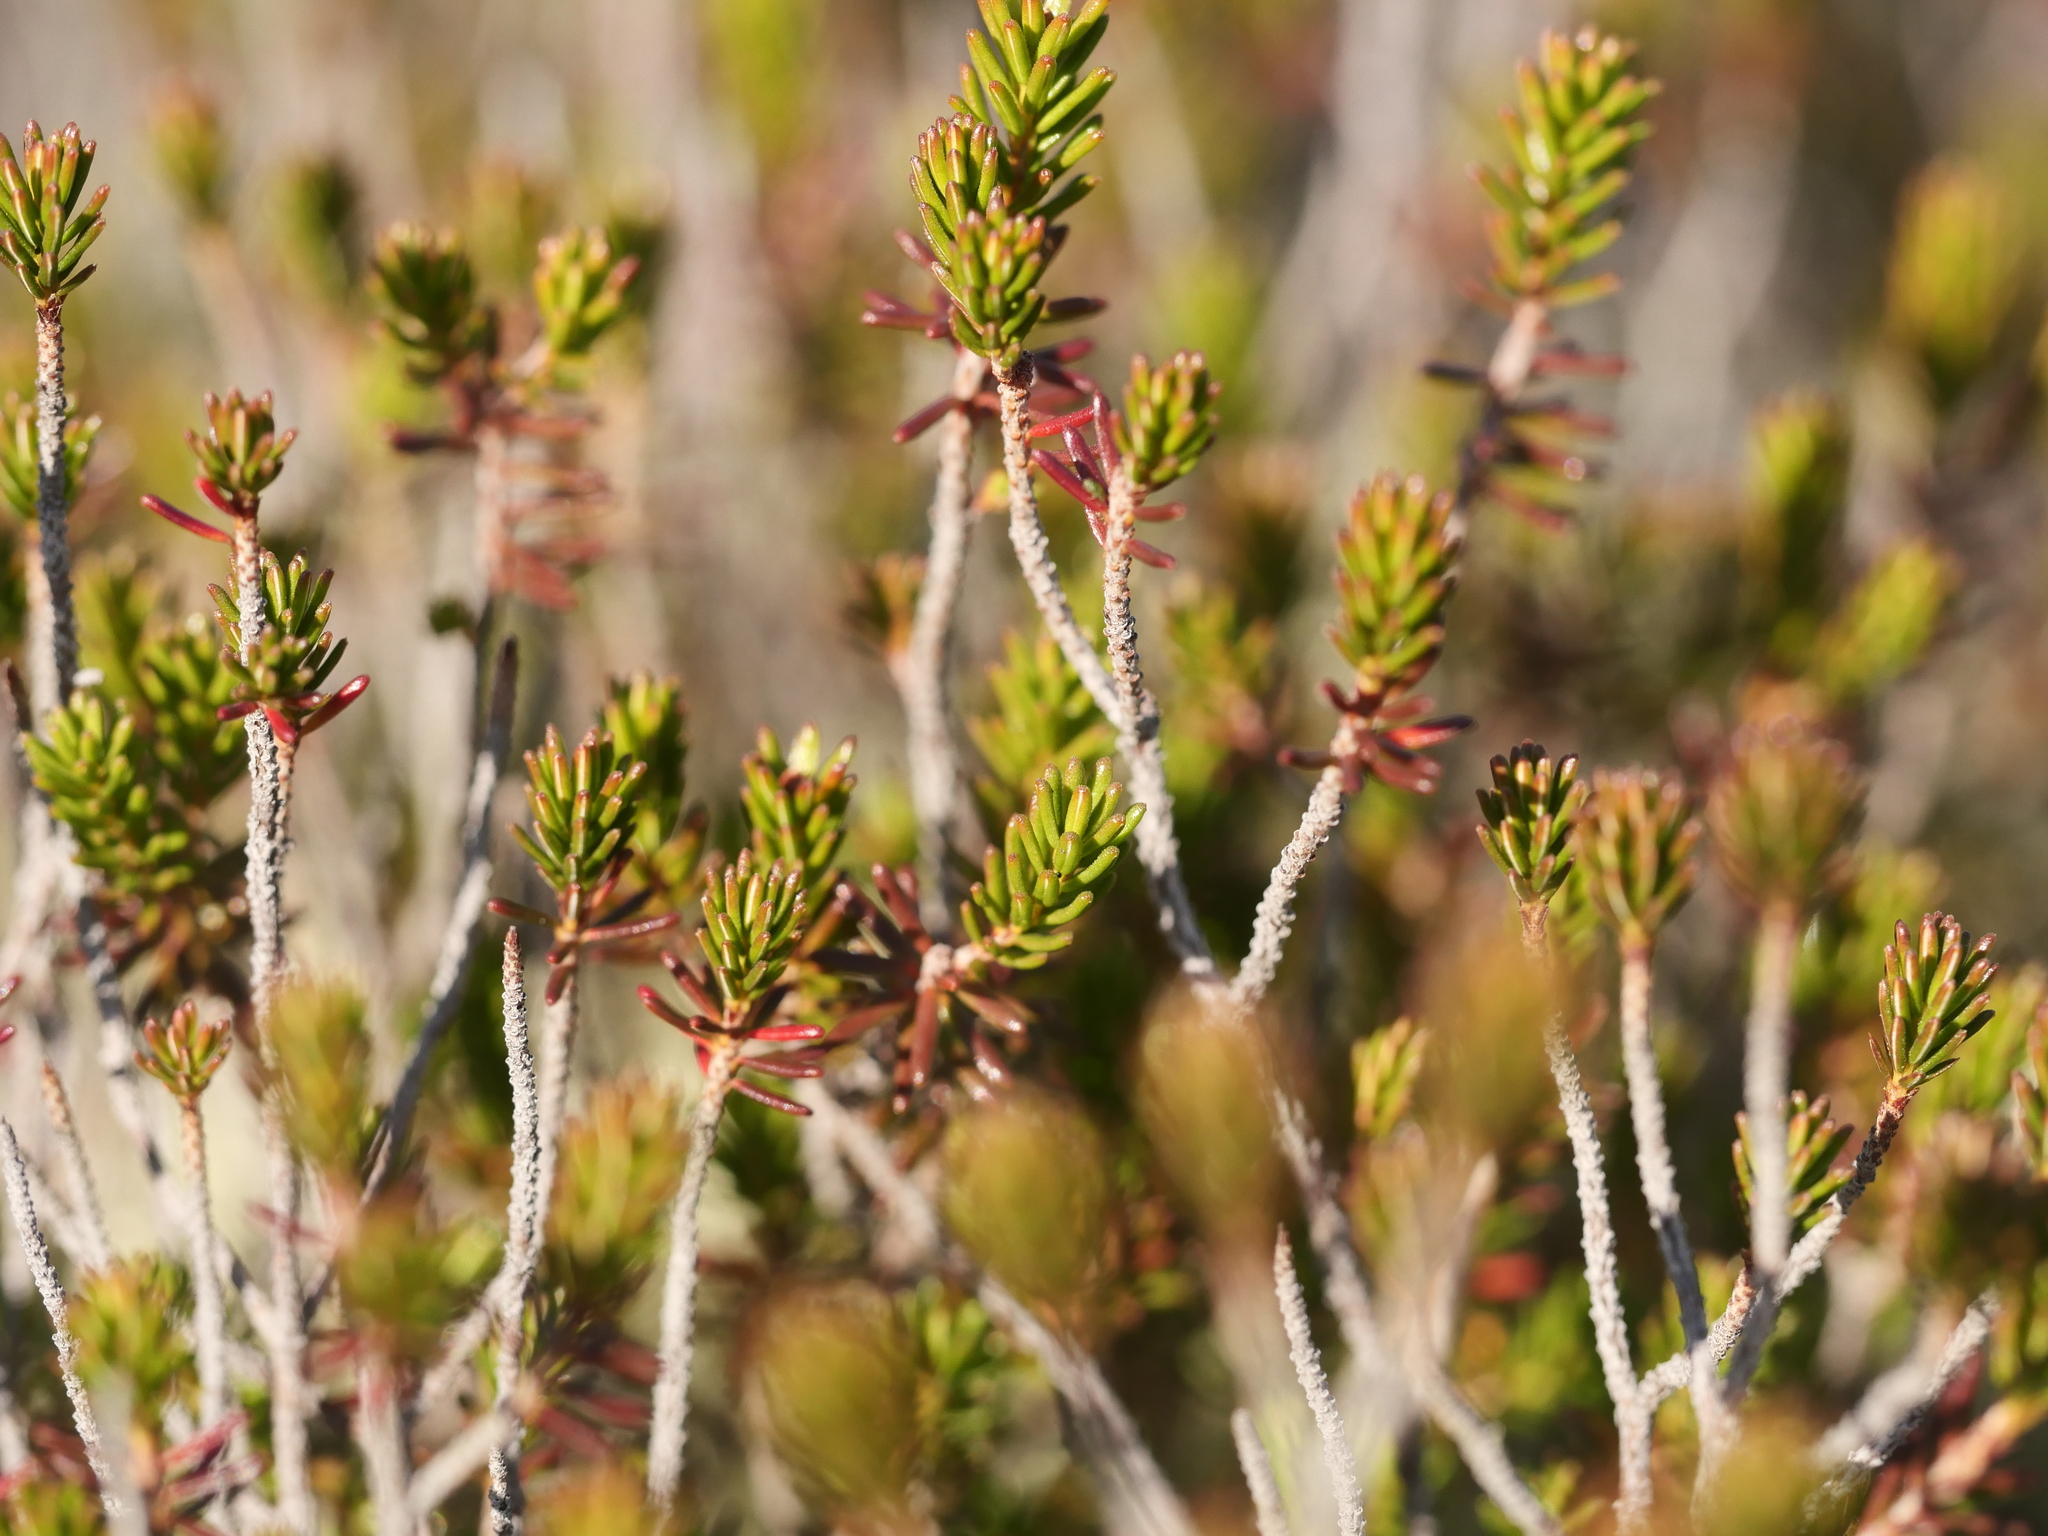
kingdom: Plantae
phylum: Tracheophyta
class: Magnoliopsida
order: Ericales
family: Ericaceae
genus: Corema
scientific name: Corema conradii
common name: Broom-crowberry
